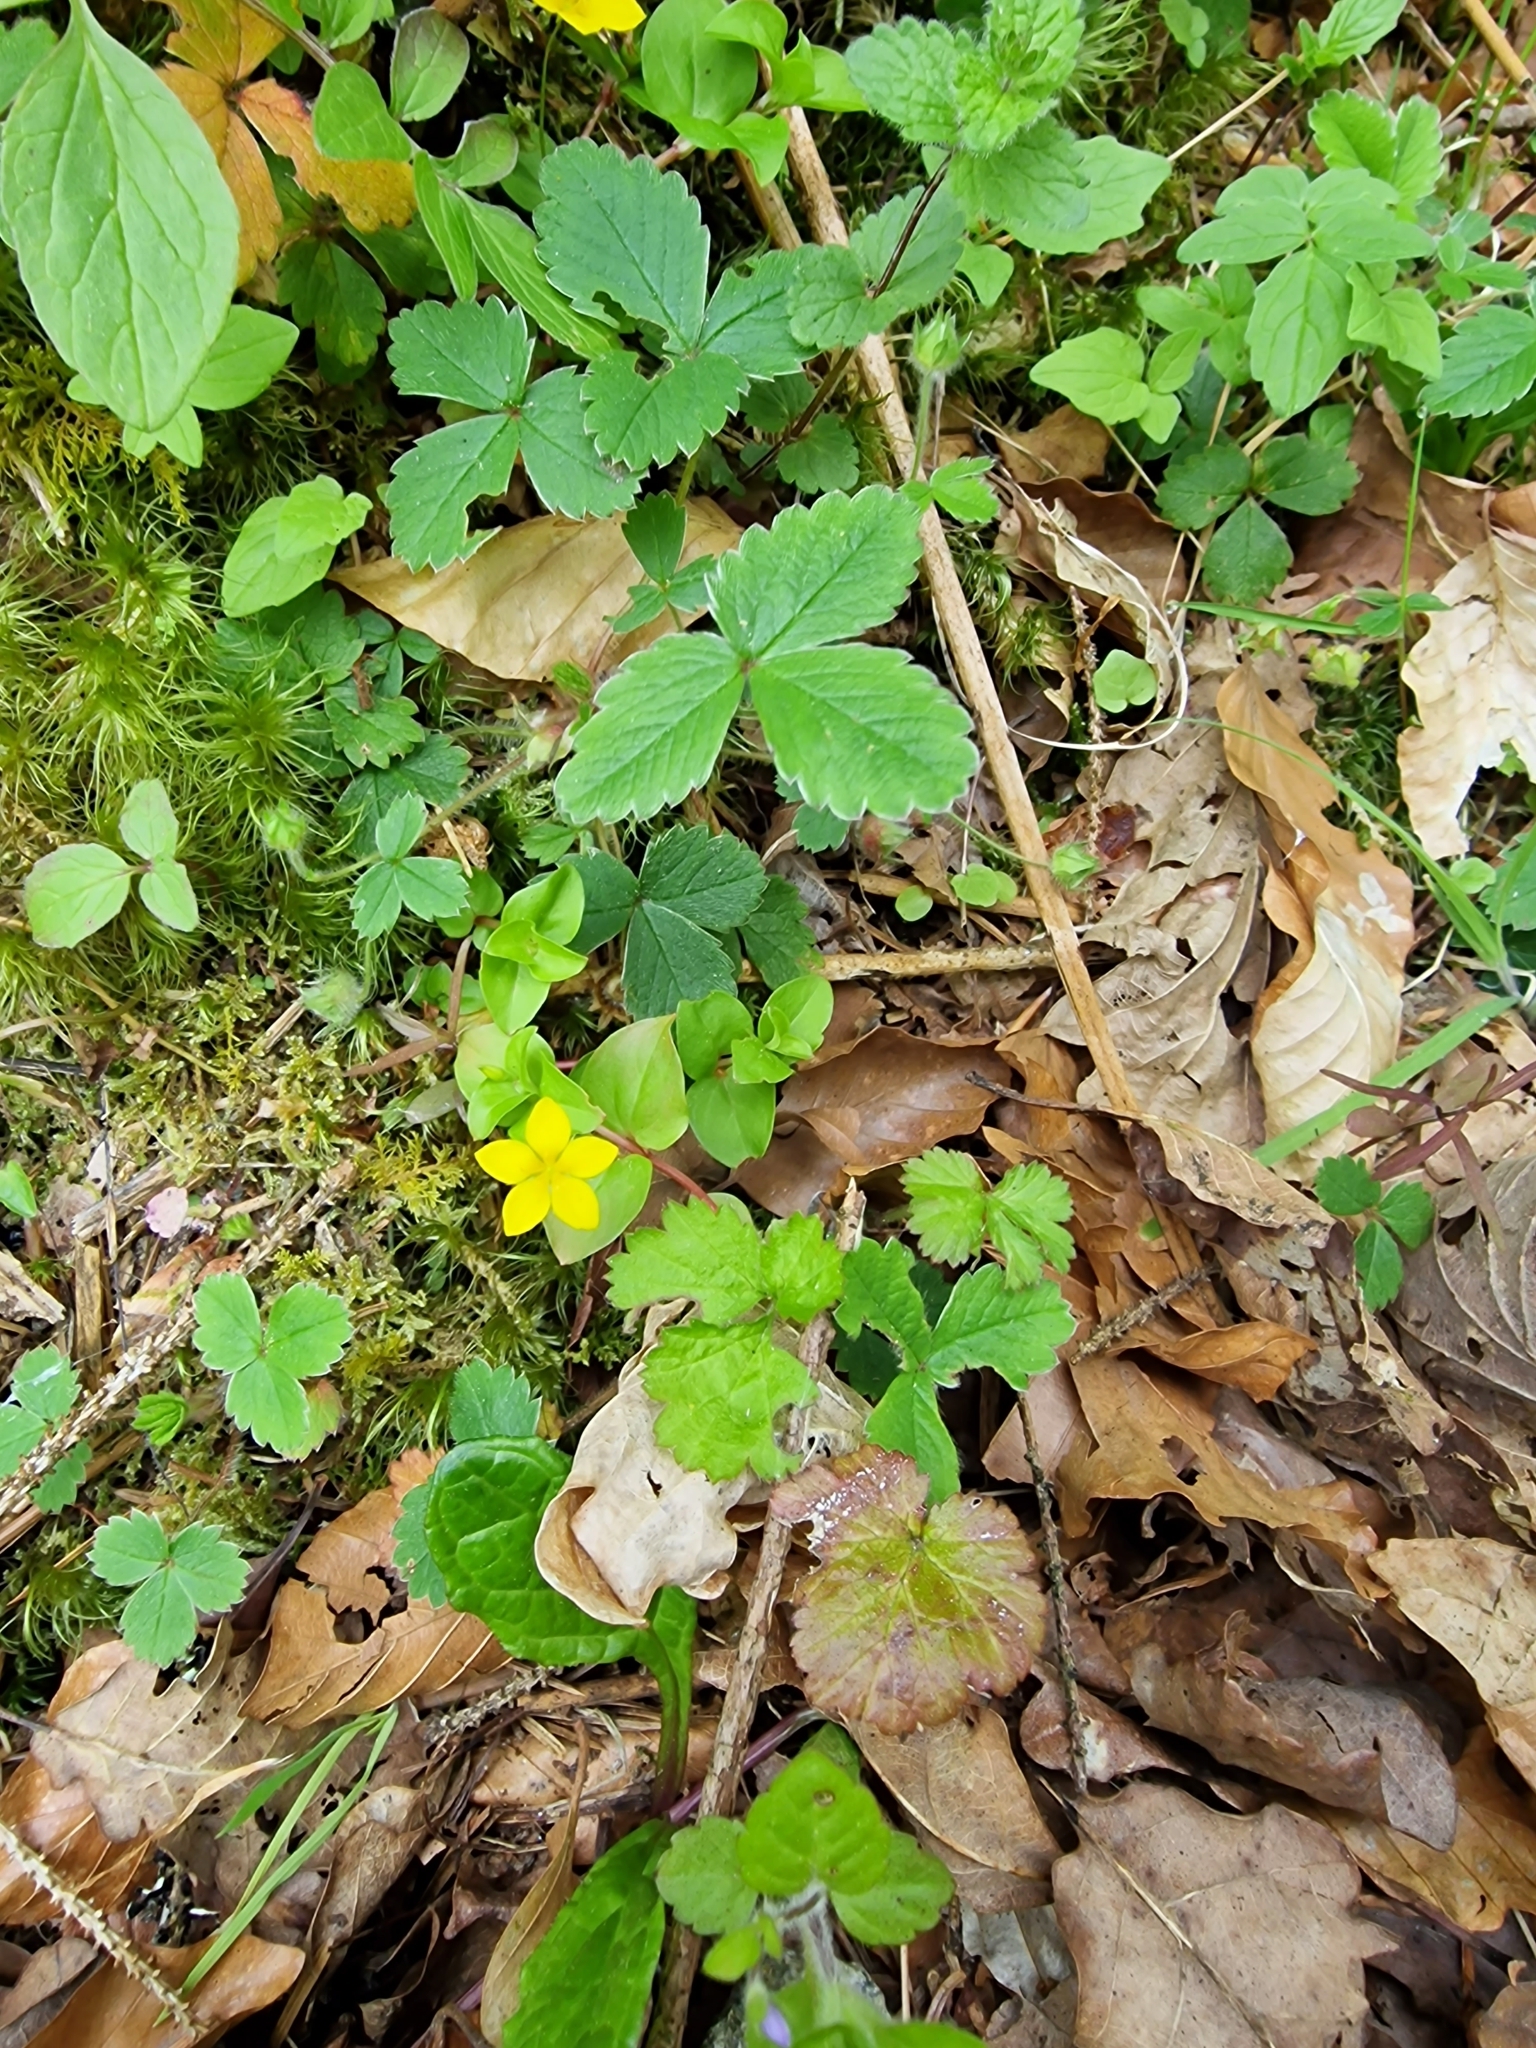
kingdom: Plantae
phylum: Tracheophyta
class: Magnoliopsida
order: Ericales
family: Primulaceae
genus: Lysimachia
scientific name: Lysimachia nemorum
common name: Yellow pimpernel
